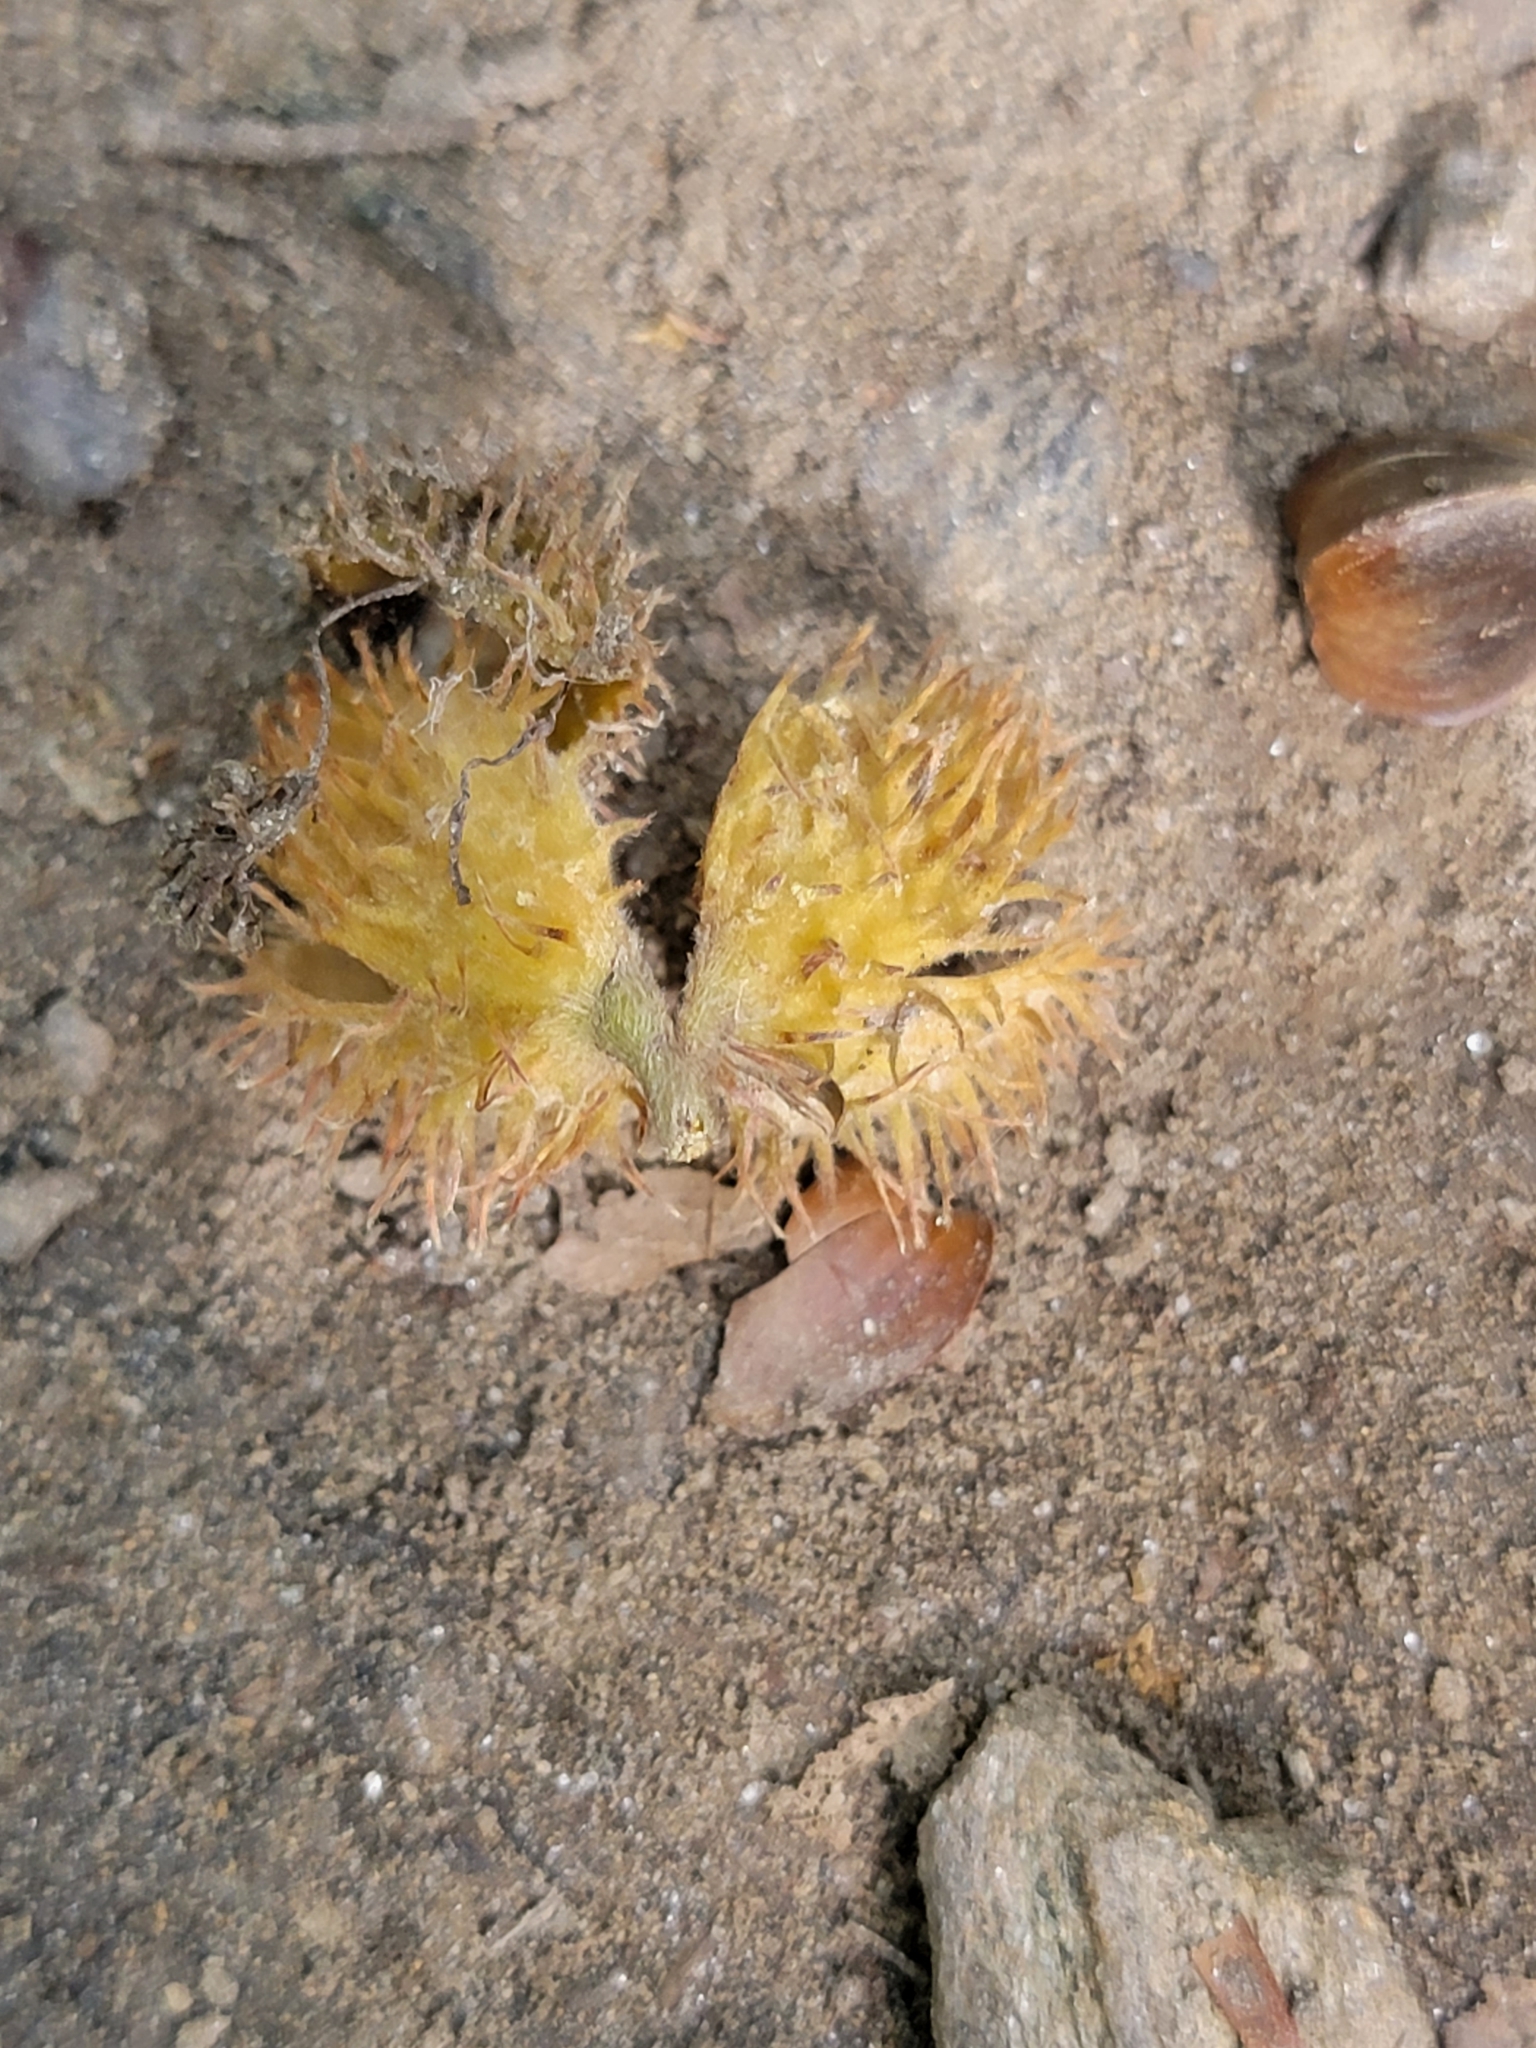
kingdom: Plantae
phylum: Tracheophyta
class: Magnoliopsida
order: Fagales
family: Fagaceae
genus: Fagus
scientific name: Fagus grandifolia
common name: American beech
